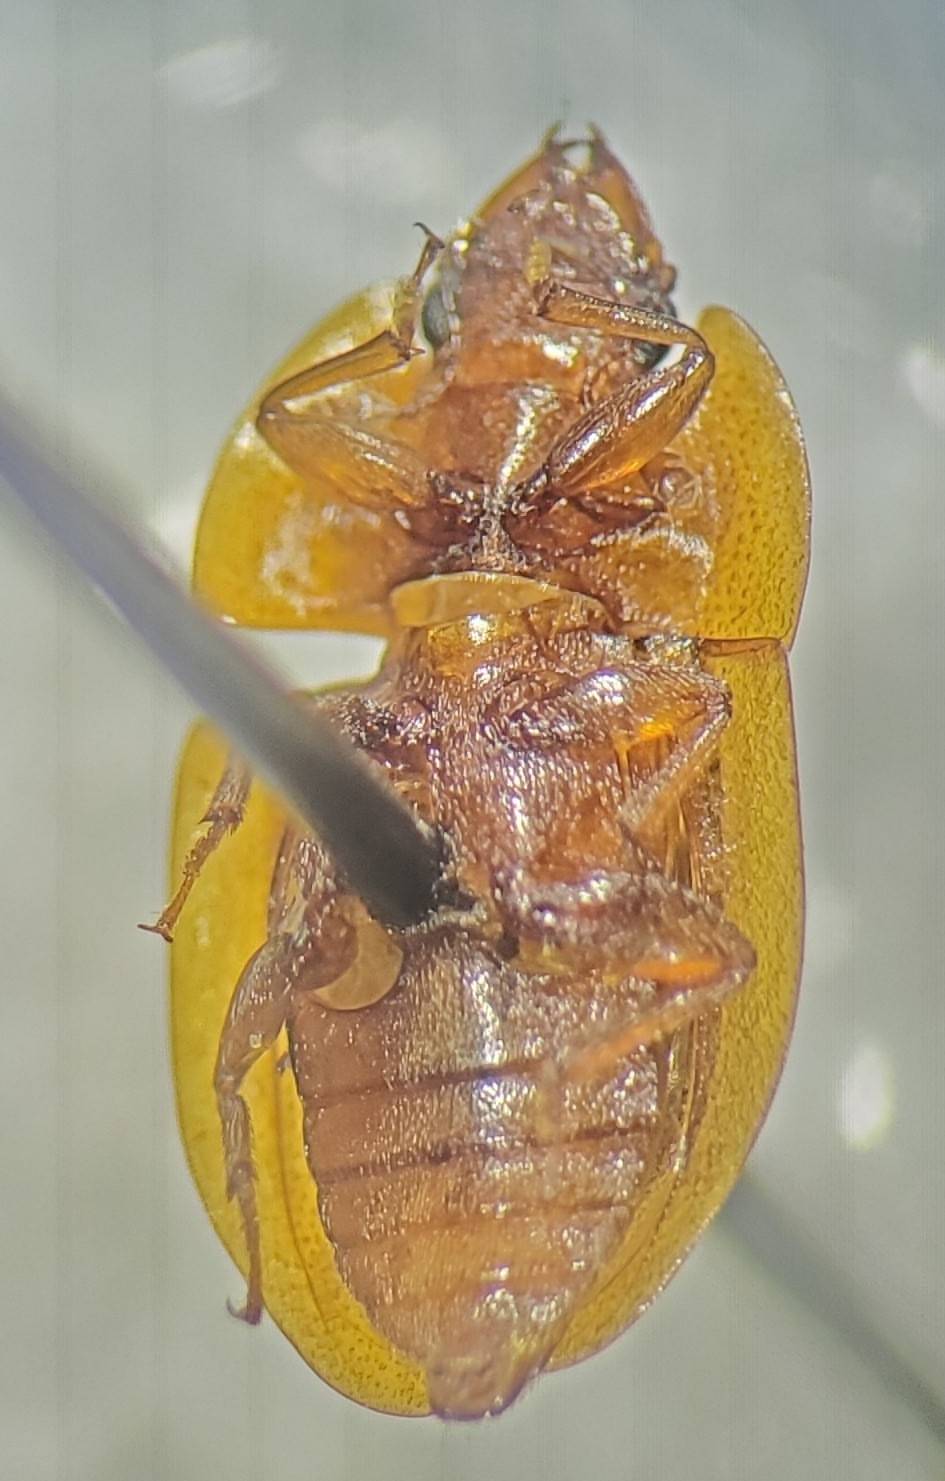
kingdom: Animalia
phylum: Arthropoda
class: Insecta
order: Coleoptera
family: Nitidulidae
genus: Prometopia
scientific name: Prometopia sexmaculata
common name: Six-spotted sap-feeding beetle
